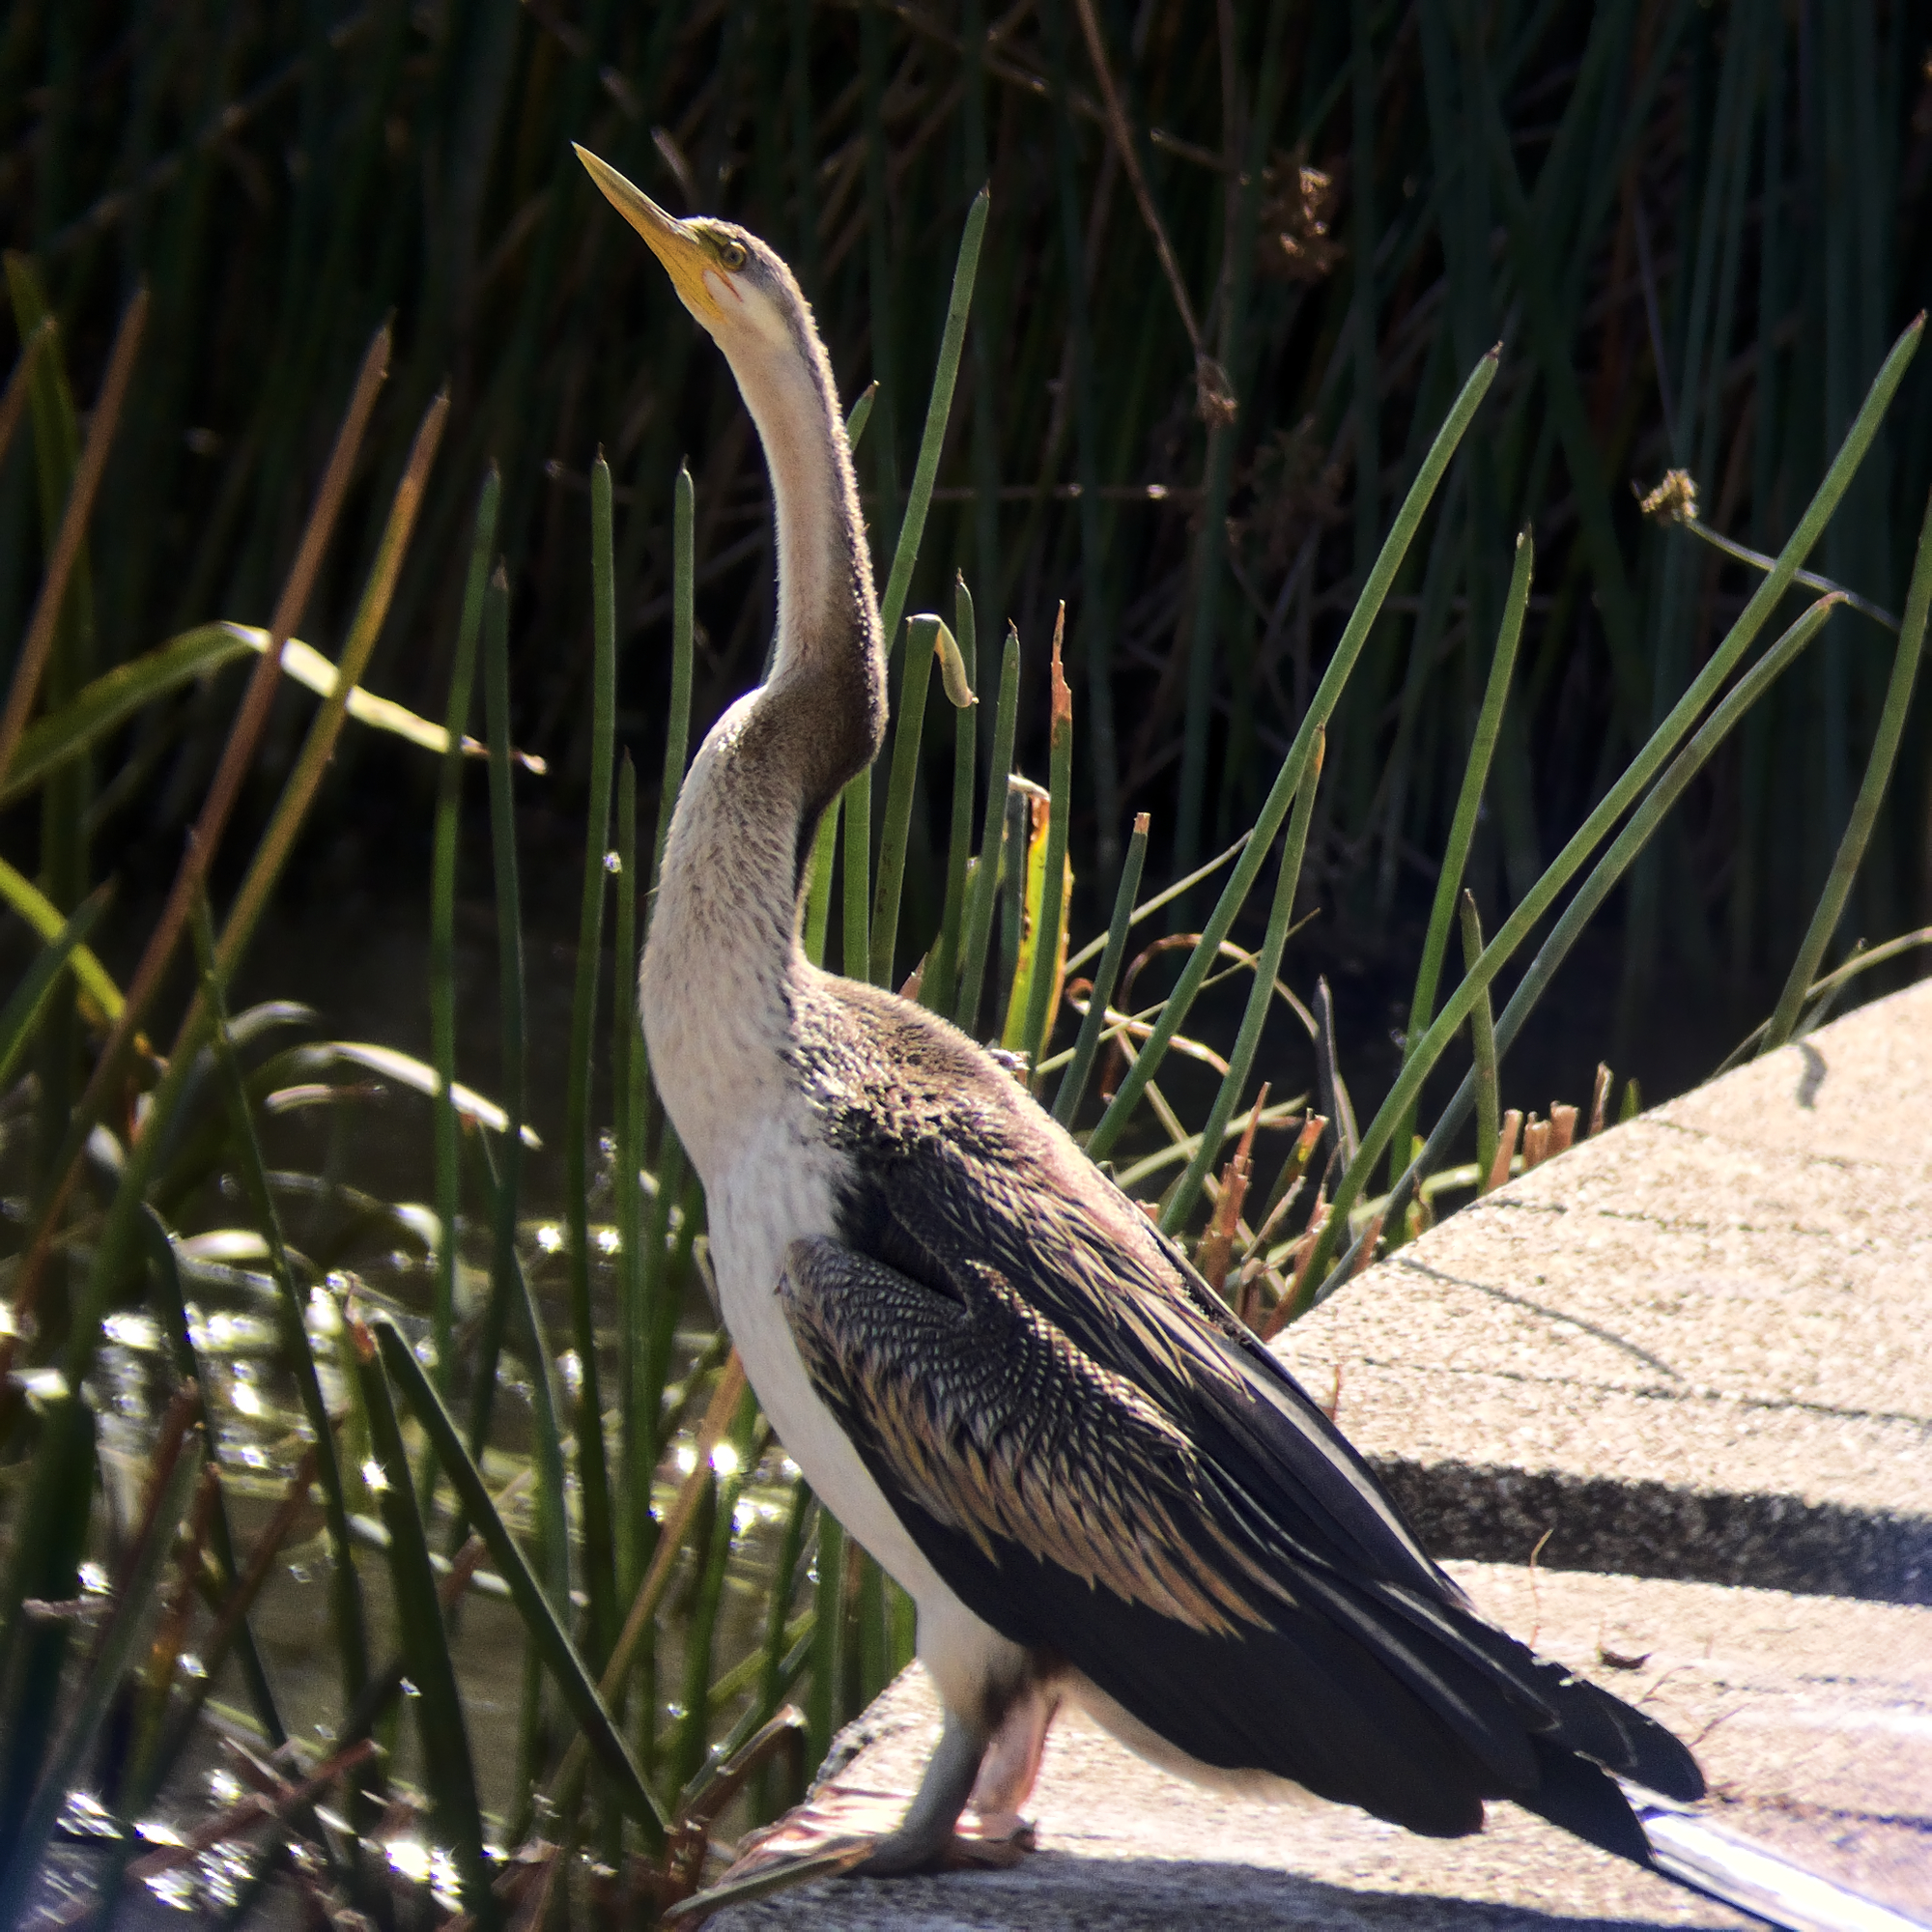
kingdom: Animalia
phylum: Chordata
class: Aves
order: Suliformes
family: Anhingidae
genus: Anhinga
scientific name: Anhinga novaehollandiae
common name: Australasian darter
